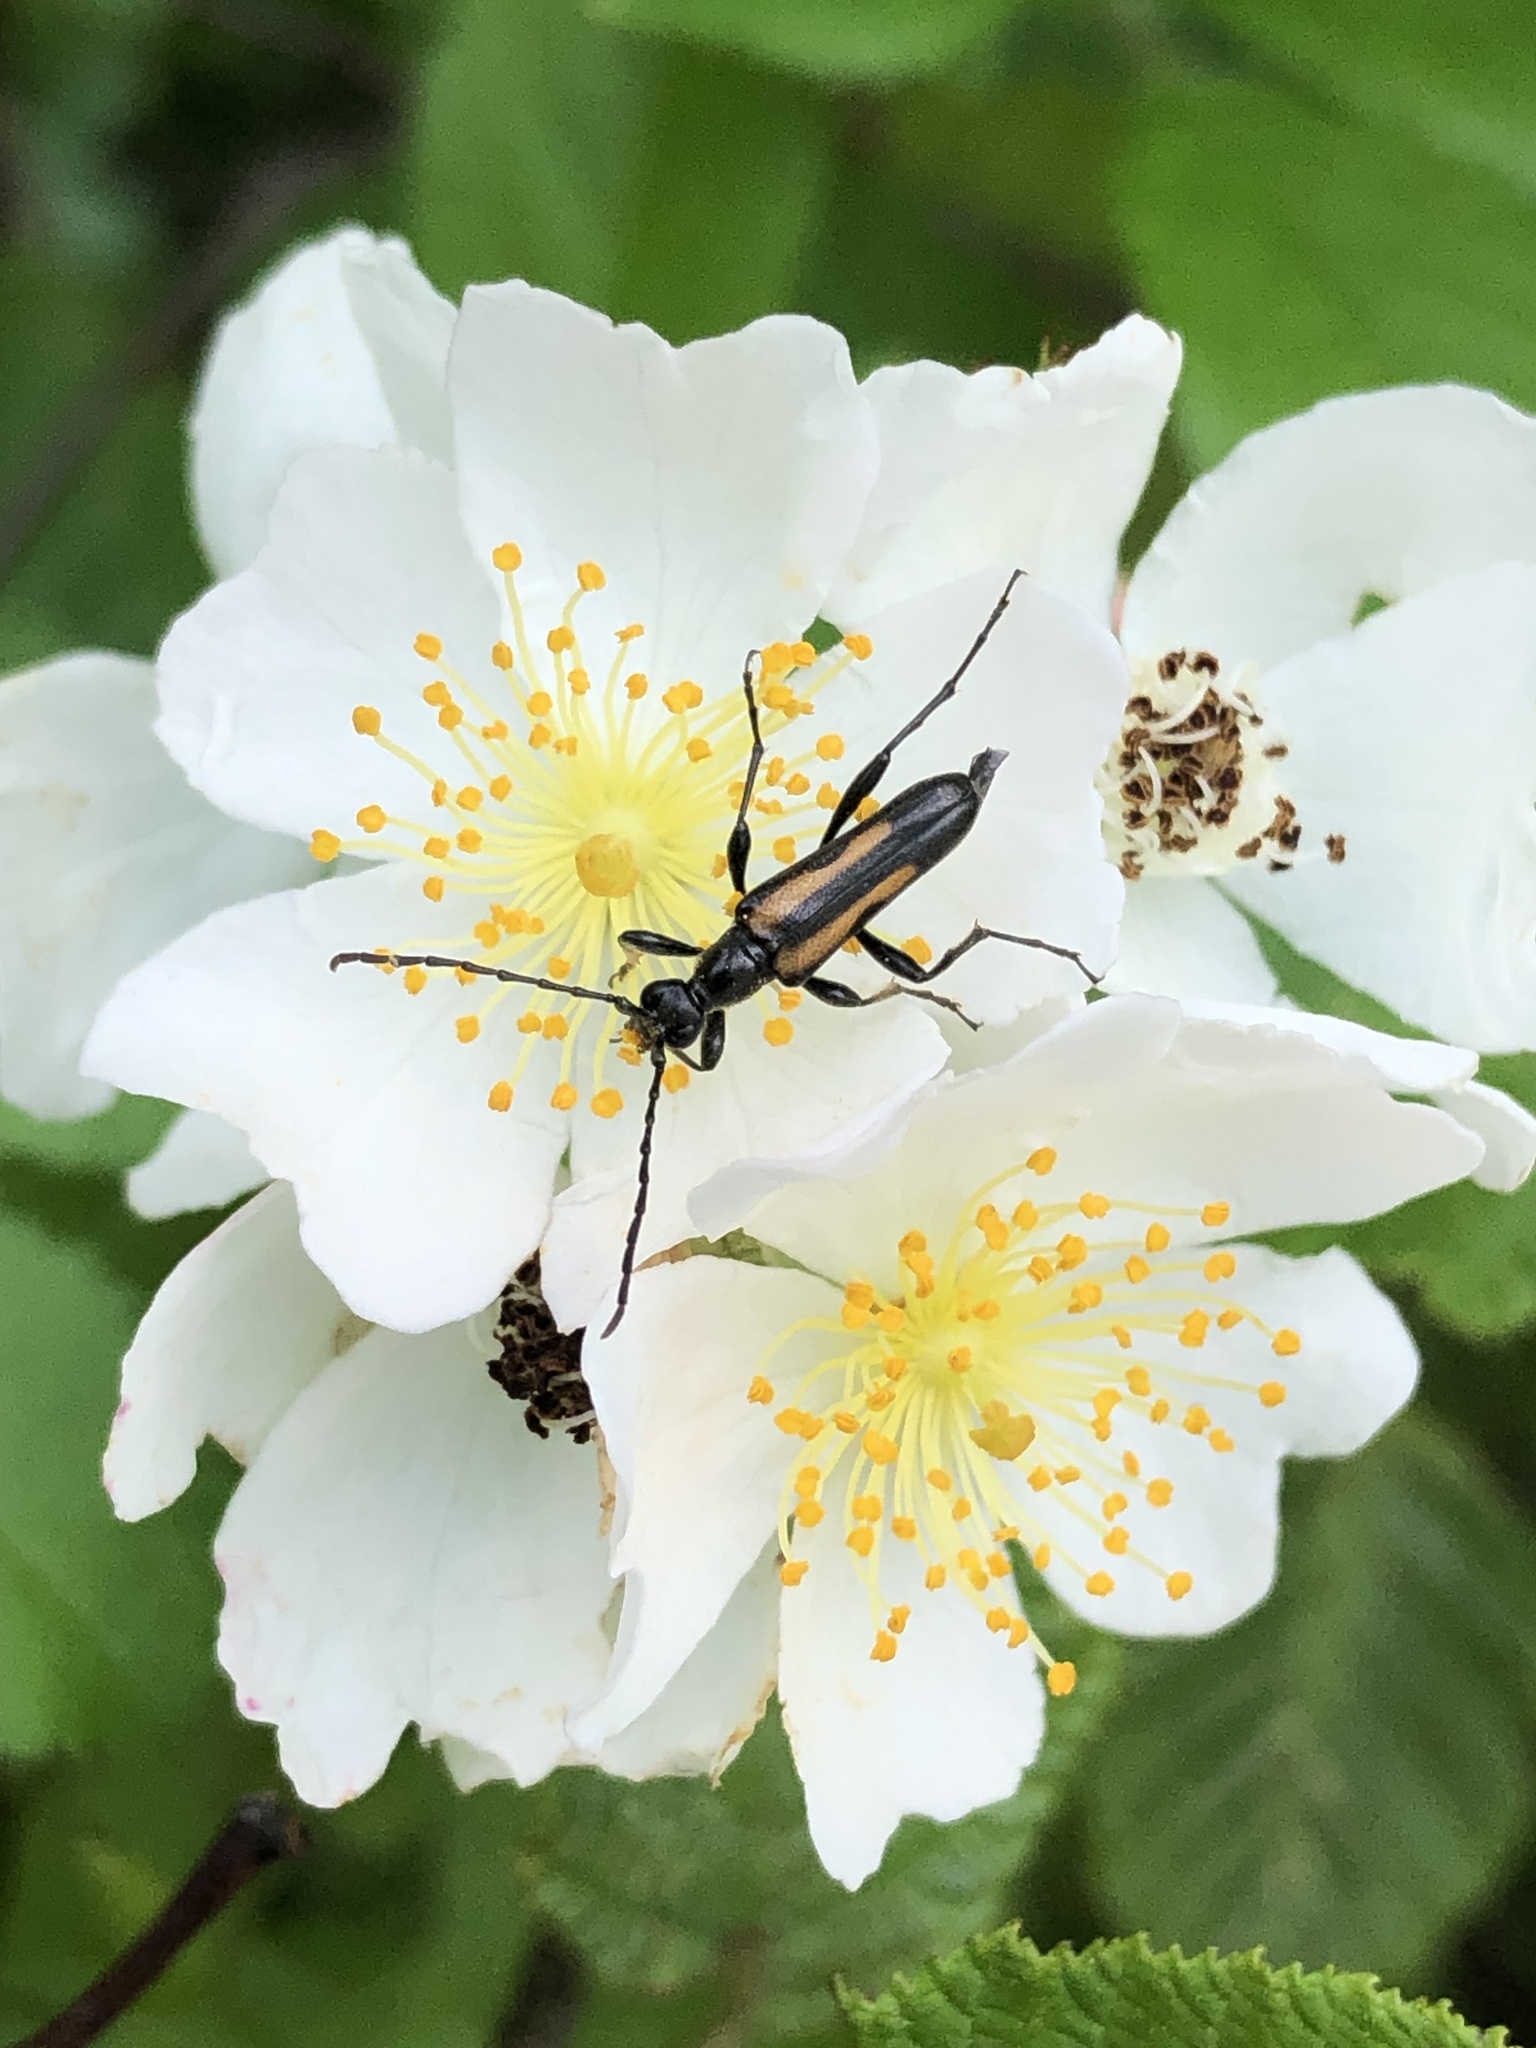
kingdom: Animalia
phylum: Arthropoda
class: Insecta
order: Coleoptera
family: Cerambycidae
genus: Strangalepta
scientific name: Strangalepta abbreviata
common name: Strangalepta flower longhorn beetle
